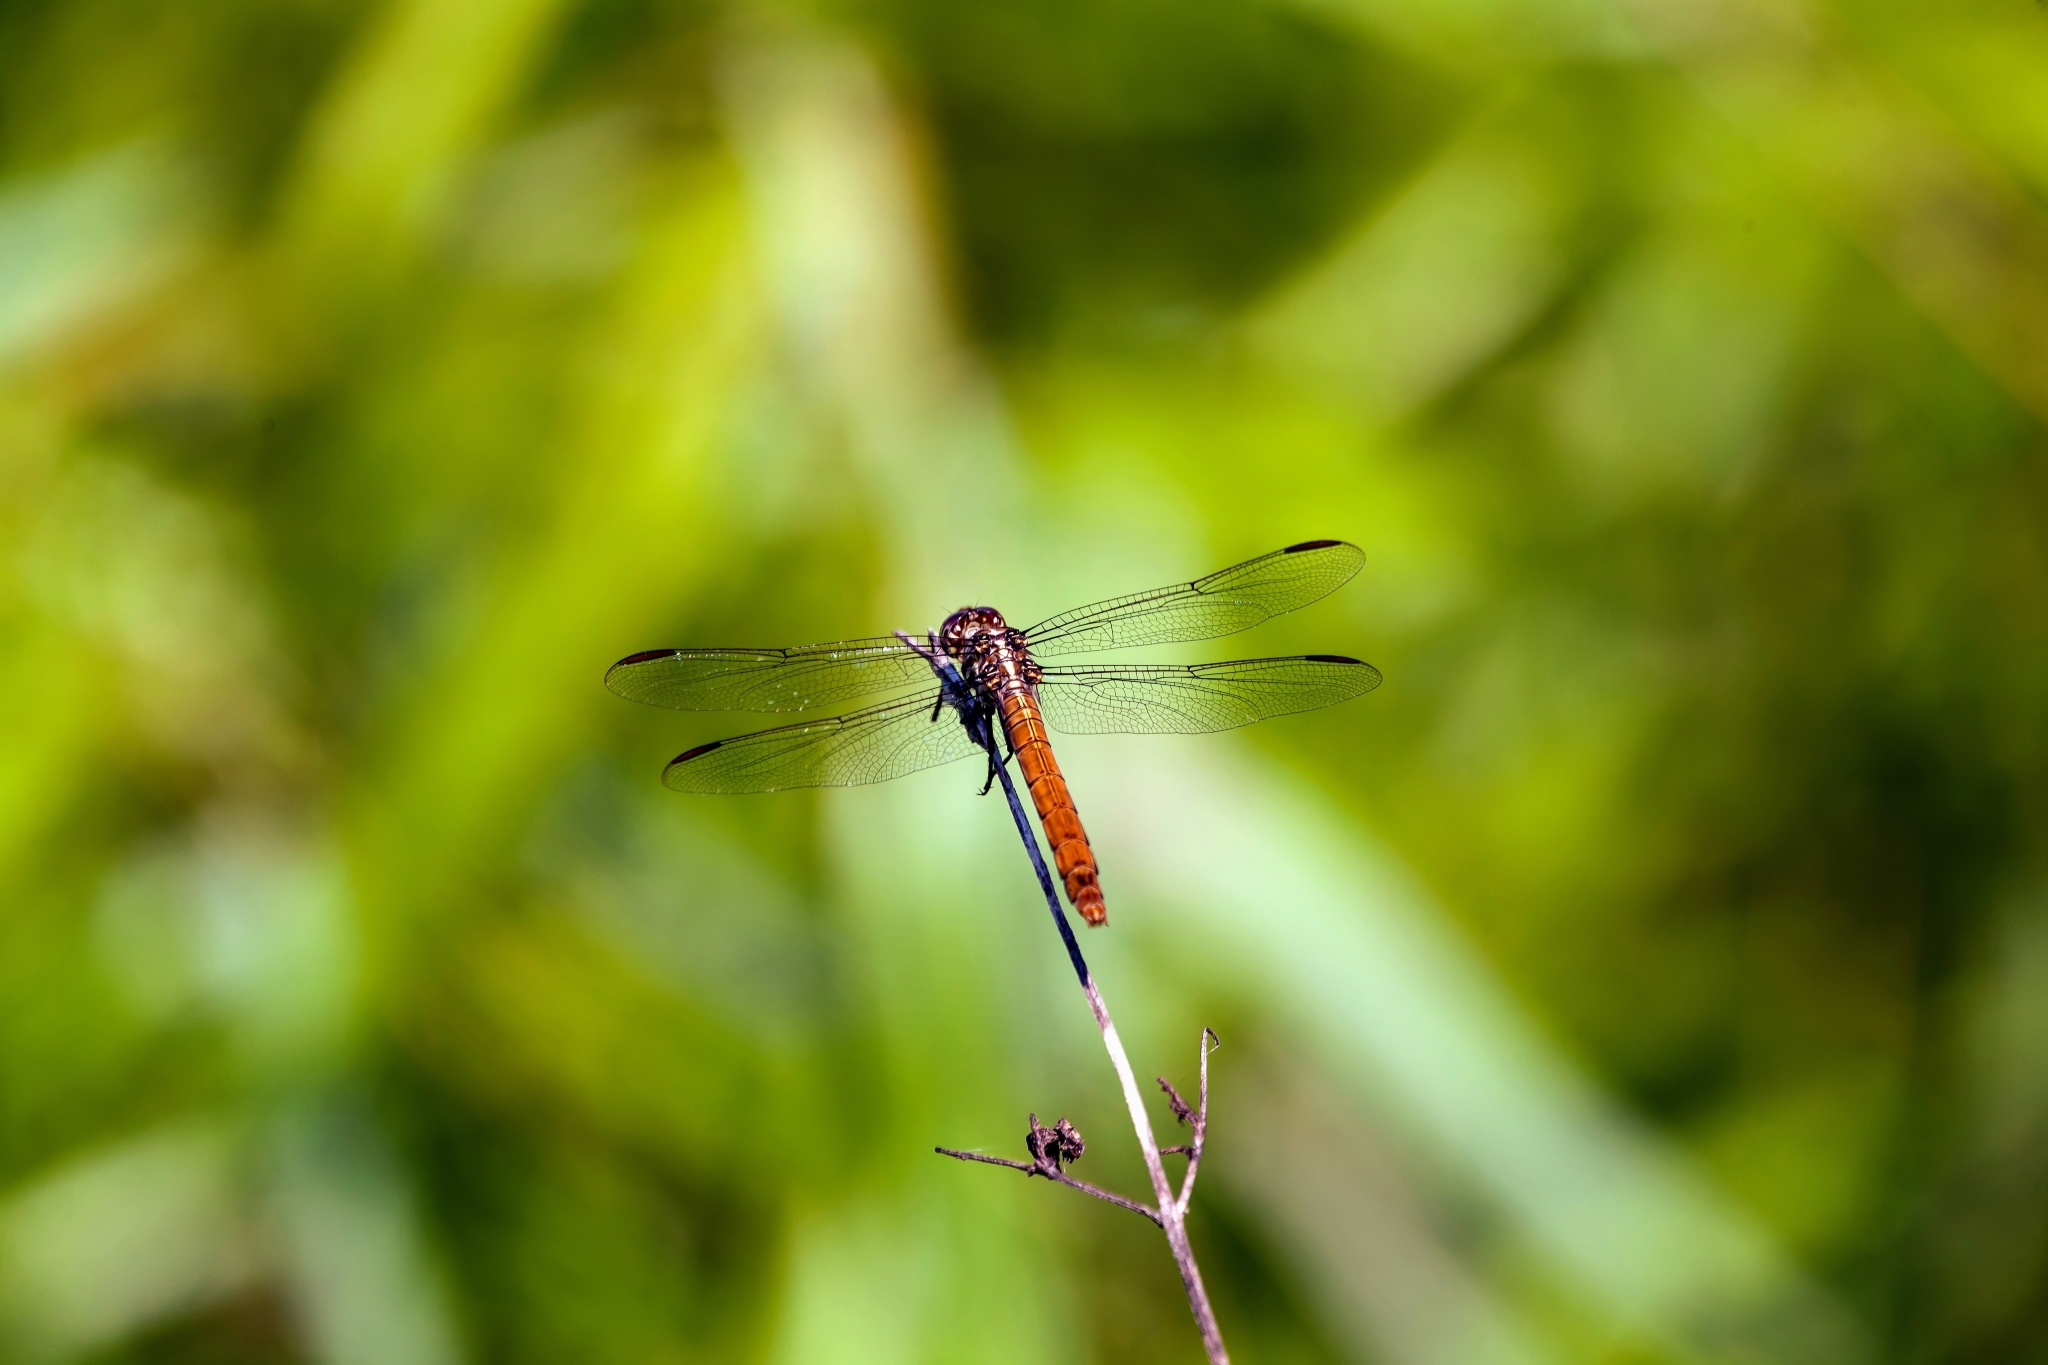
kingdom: Animalia
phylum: Arthropoda
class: Insecta
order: Odonata
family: Libellulidae
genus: Orthemis
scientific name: Orthemis ferruginea
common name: Roseate skimmer
